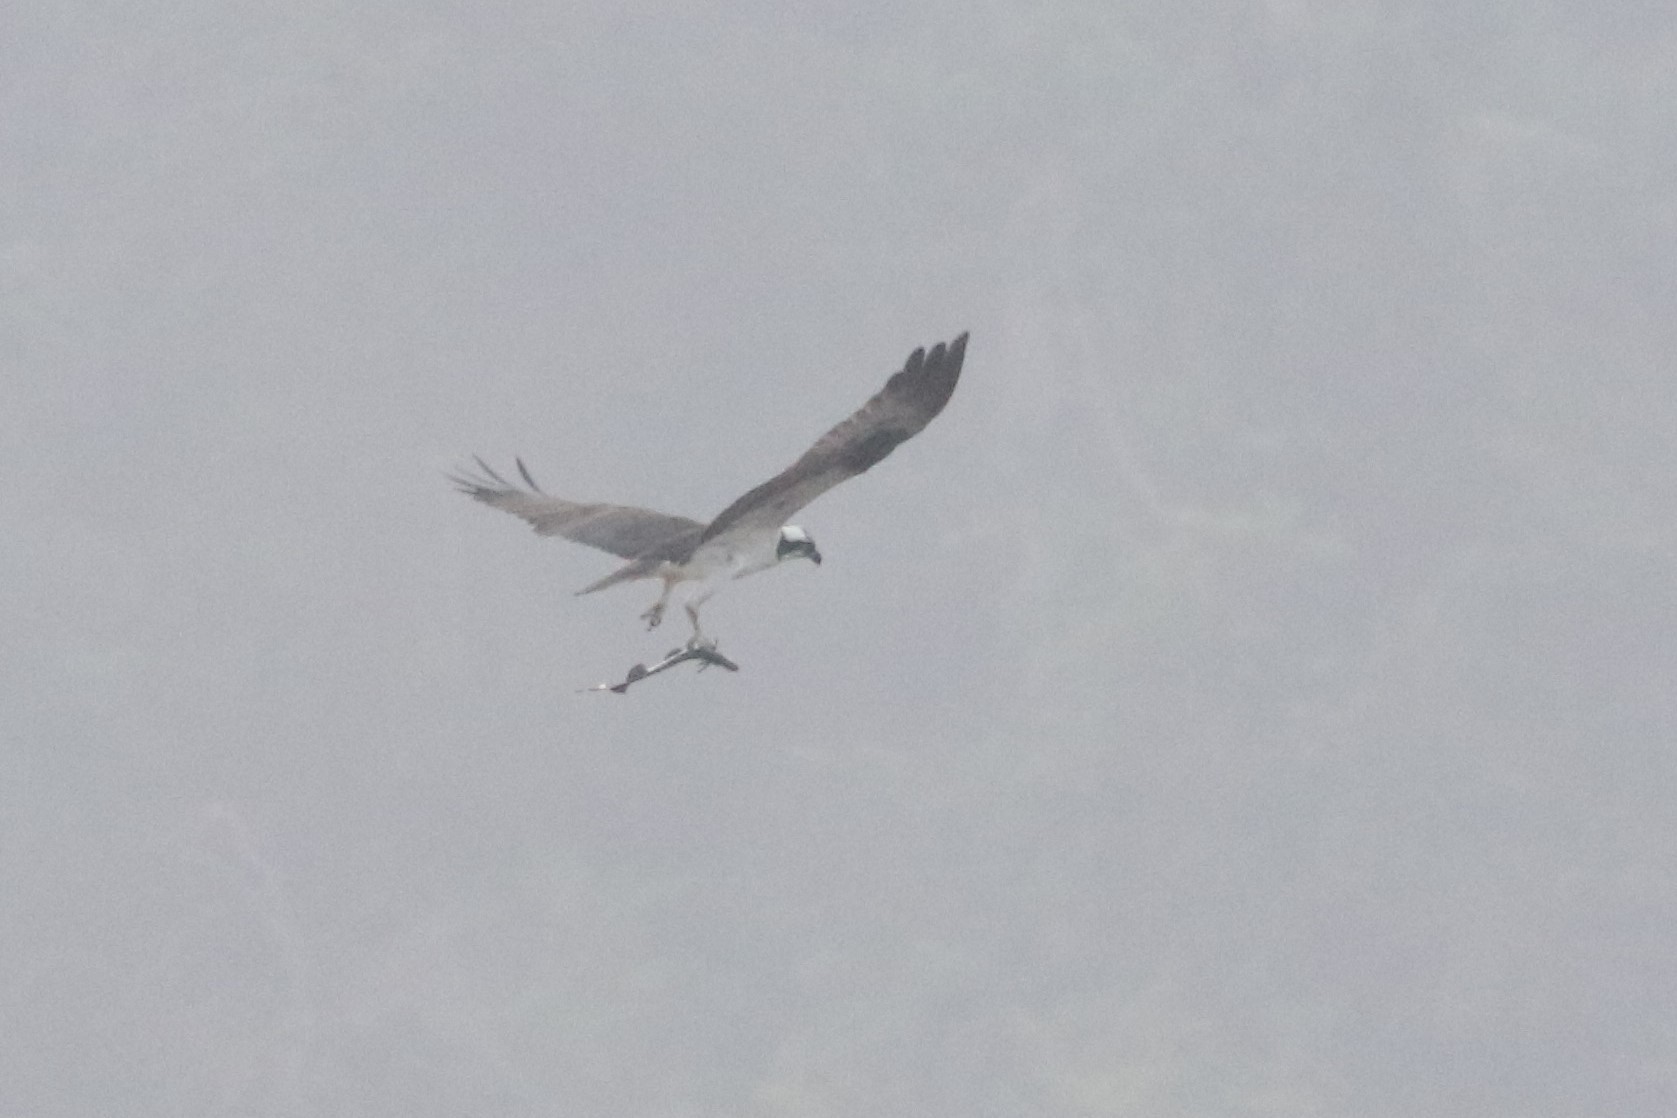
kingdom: Animalia
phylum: Chordata
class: Aves
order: Accipitriformes
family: Pandionidae
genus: Pandion
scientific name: Pandion haliaetus
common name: Osprey
